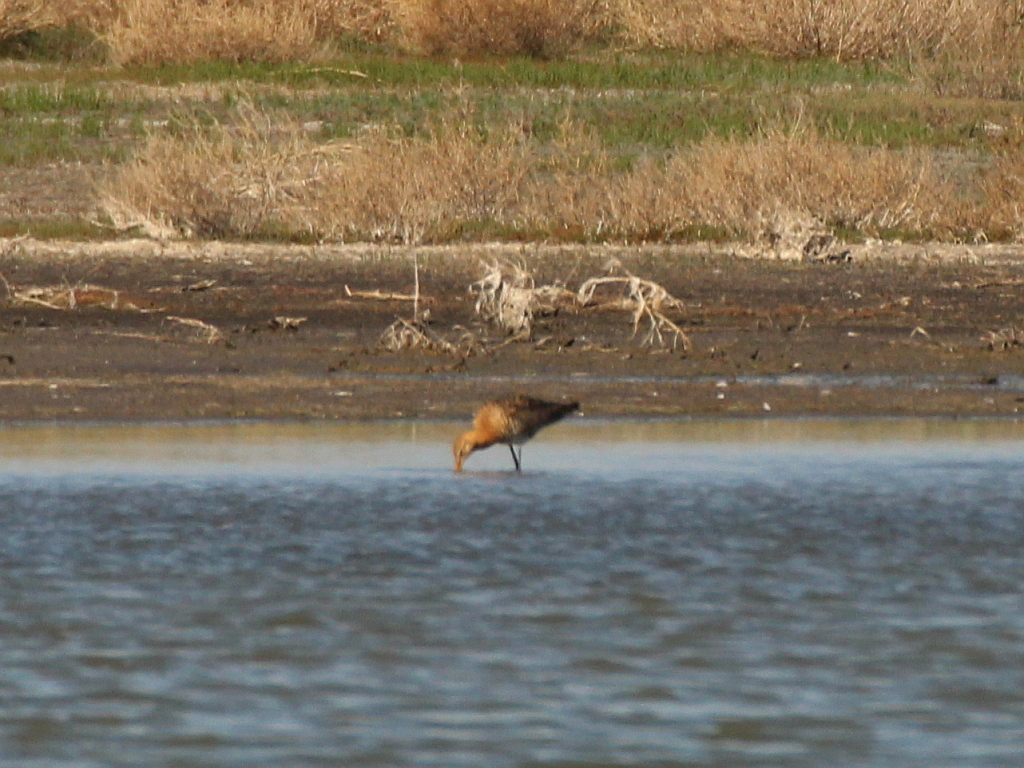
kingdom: Animalia
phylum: Chordata
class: Aves
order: Charadriiformes
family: Scolopacidae
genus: Limosa
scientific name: Limosa limosa
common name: Black-tailed godwit
